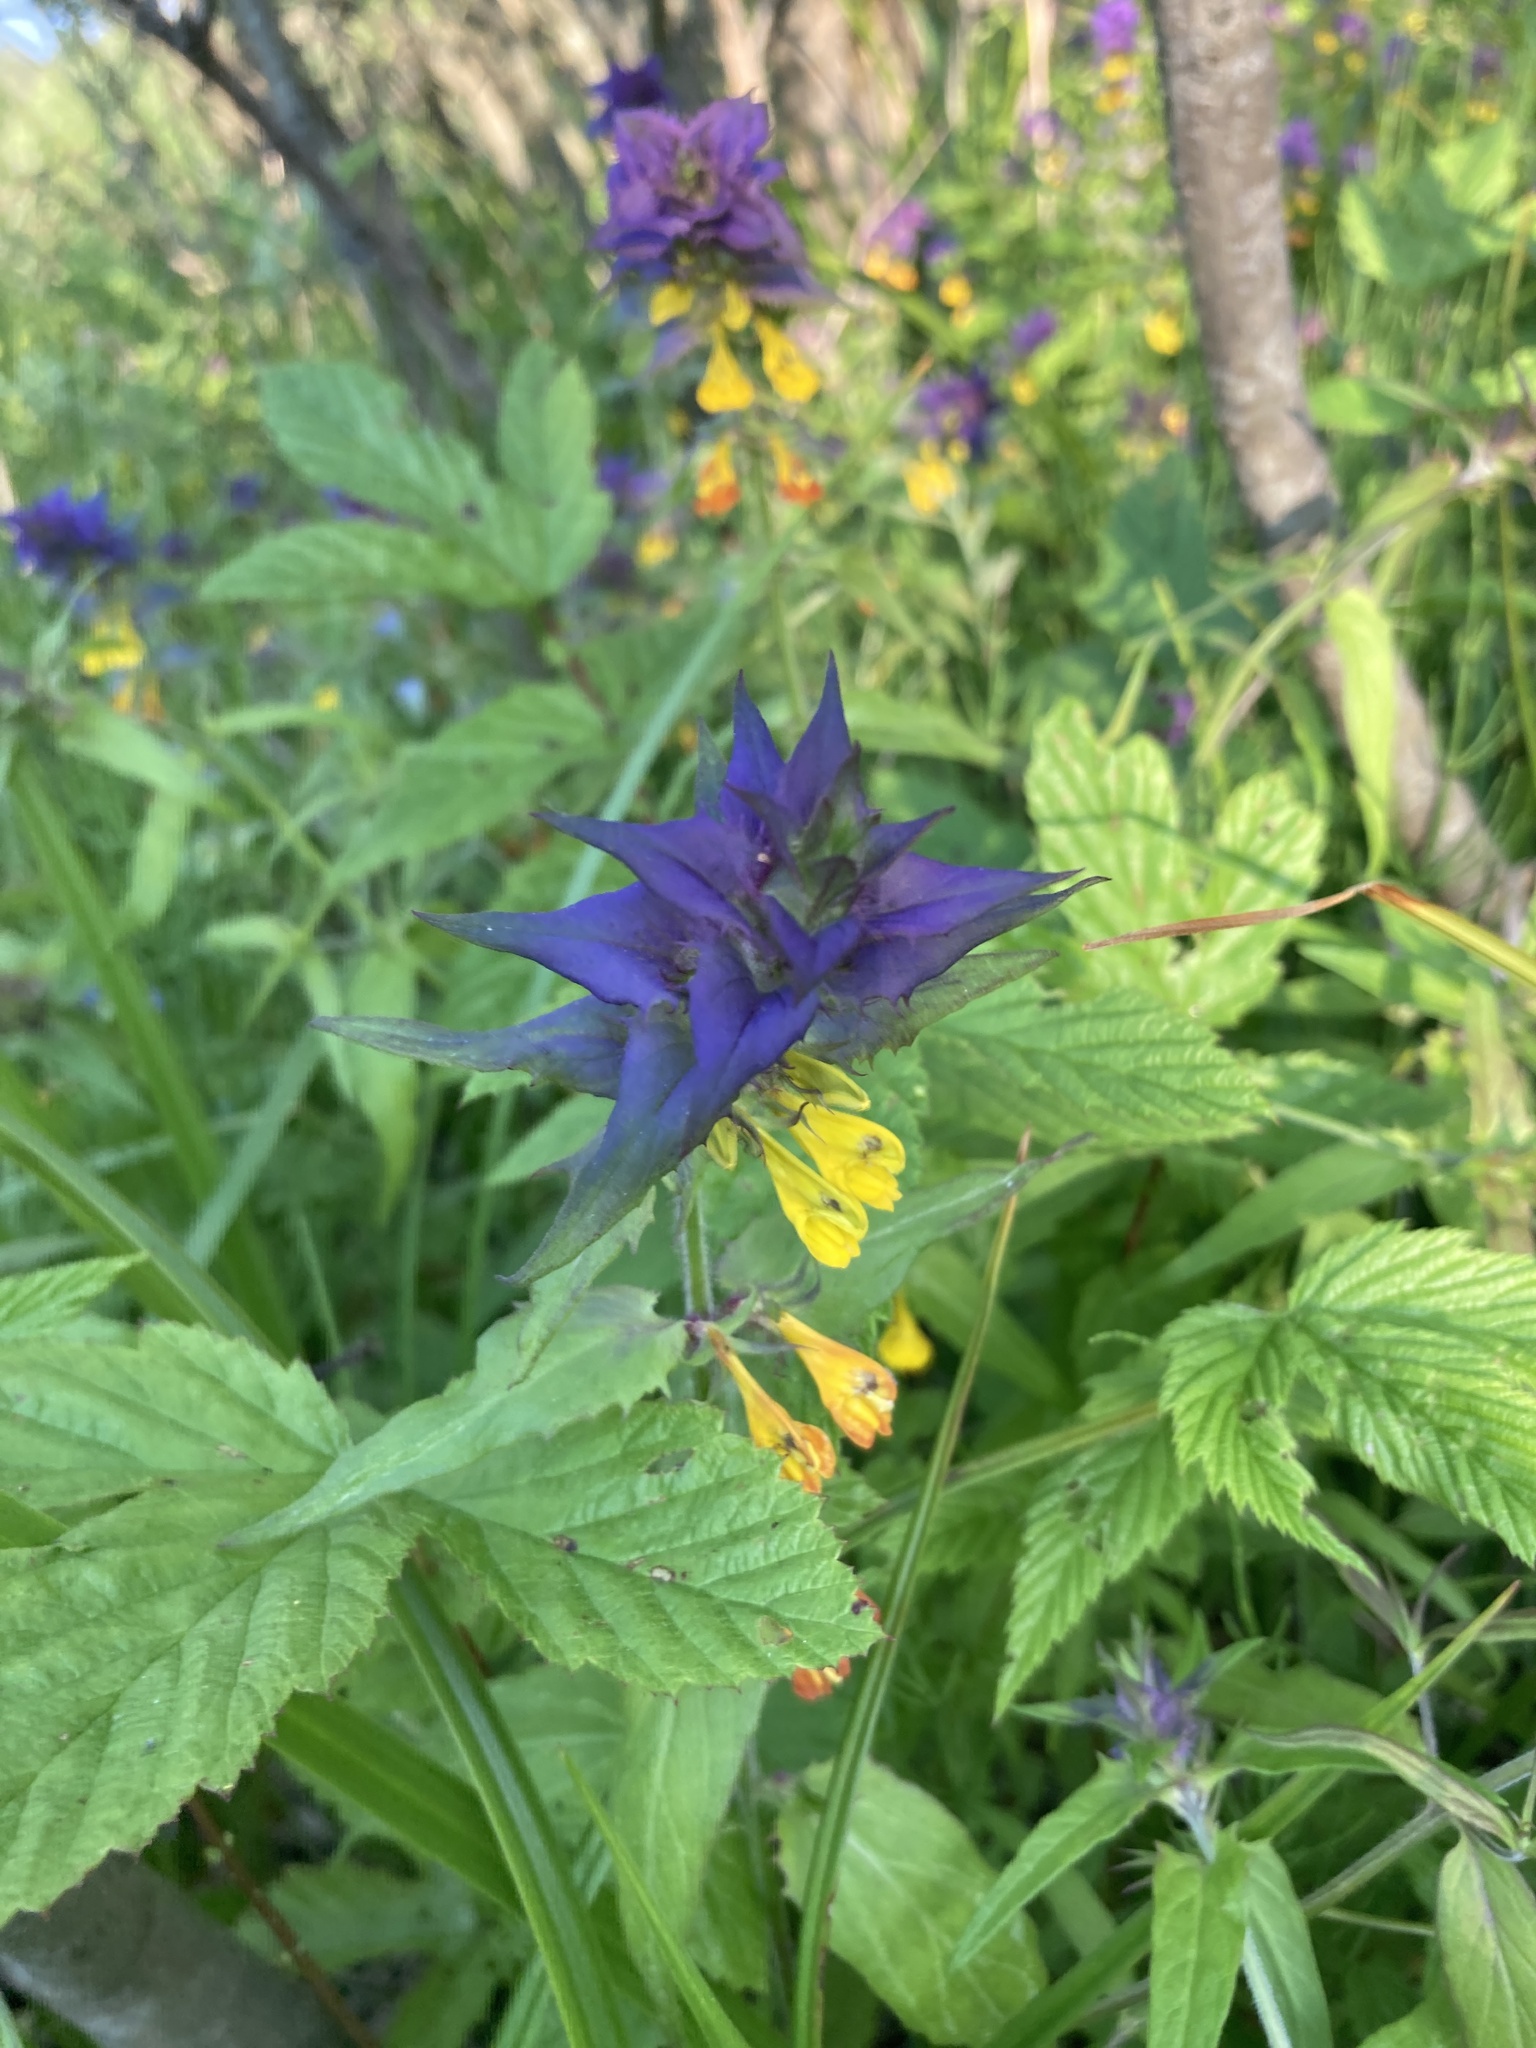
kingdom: Plantae
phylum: Tracheophyta
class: Magnoliopsida
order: Lamiales
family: Orobanchaceae
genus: Melampyrum
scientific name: Melampyrum nemorosum
